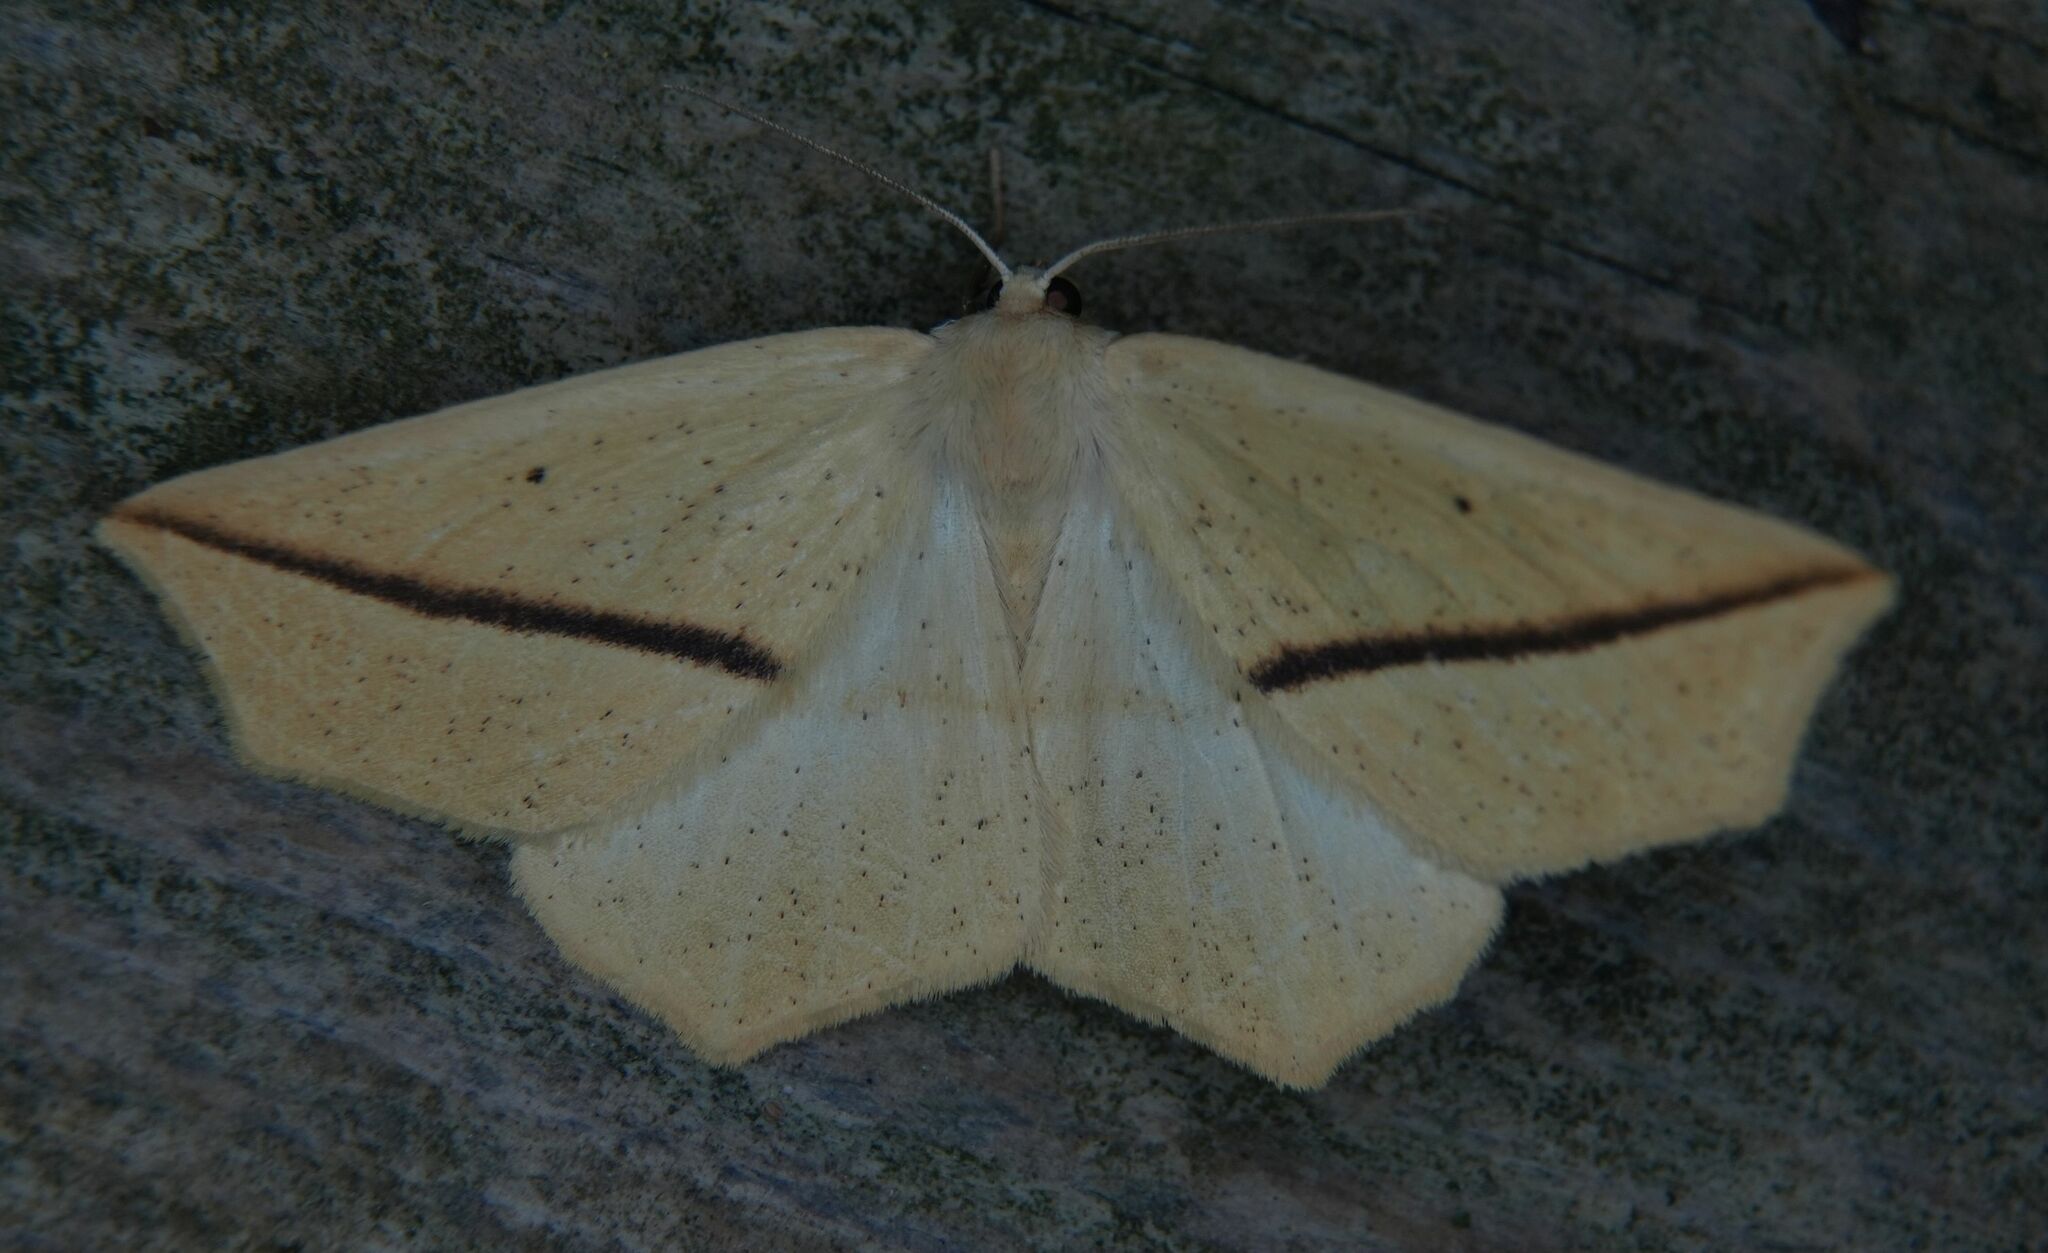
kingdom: Animalia
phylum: Arthropoda
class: Insecta
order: Lepidoptera
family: Geometridae
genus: Tetracis
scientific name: Tetracis crocallata
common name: Yellow slant-line
